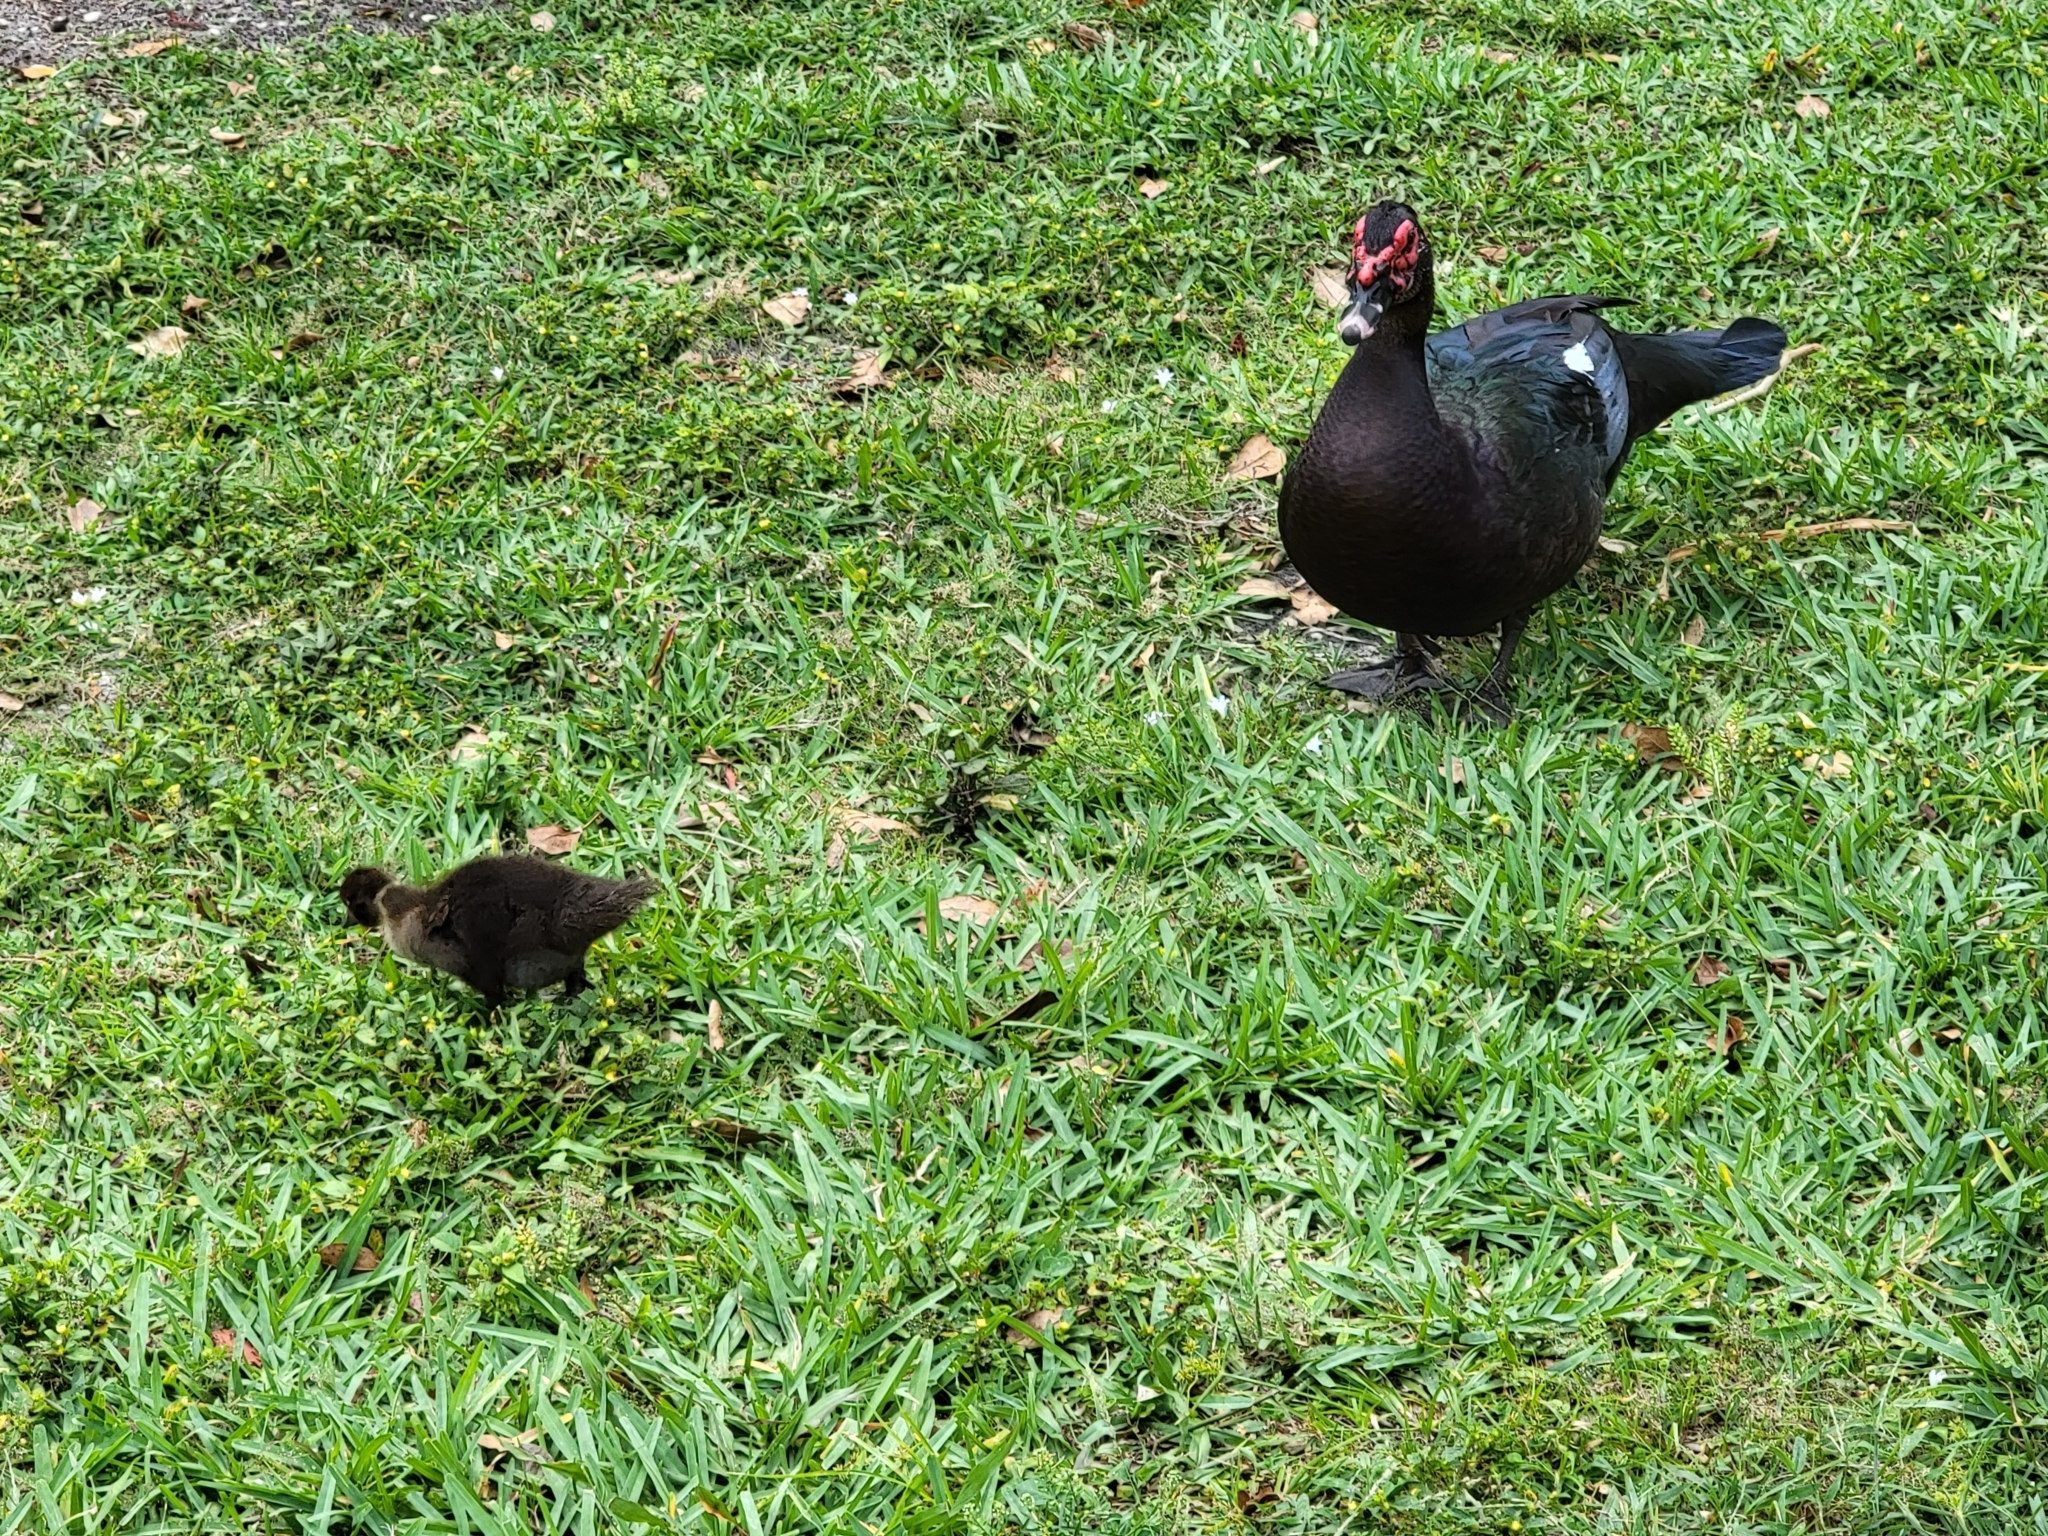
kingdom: Animalia
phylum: Chordata
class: Aves
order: Anseriformes
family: Anatidae
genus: Cairina
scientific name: Cairina moschata
